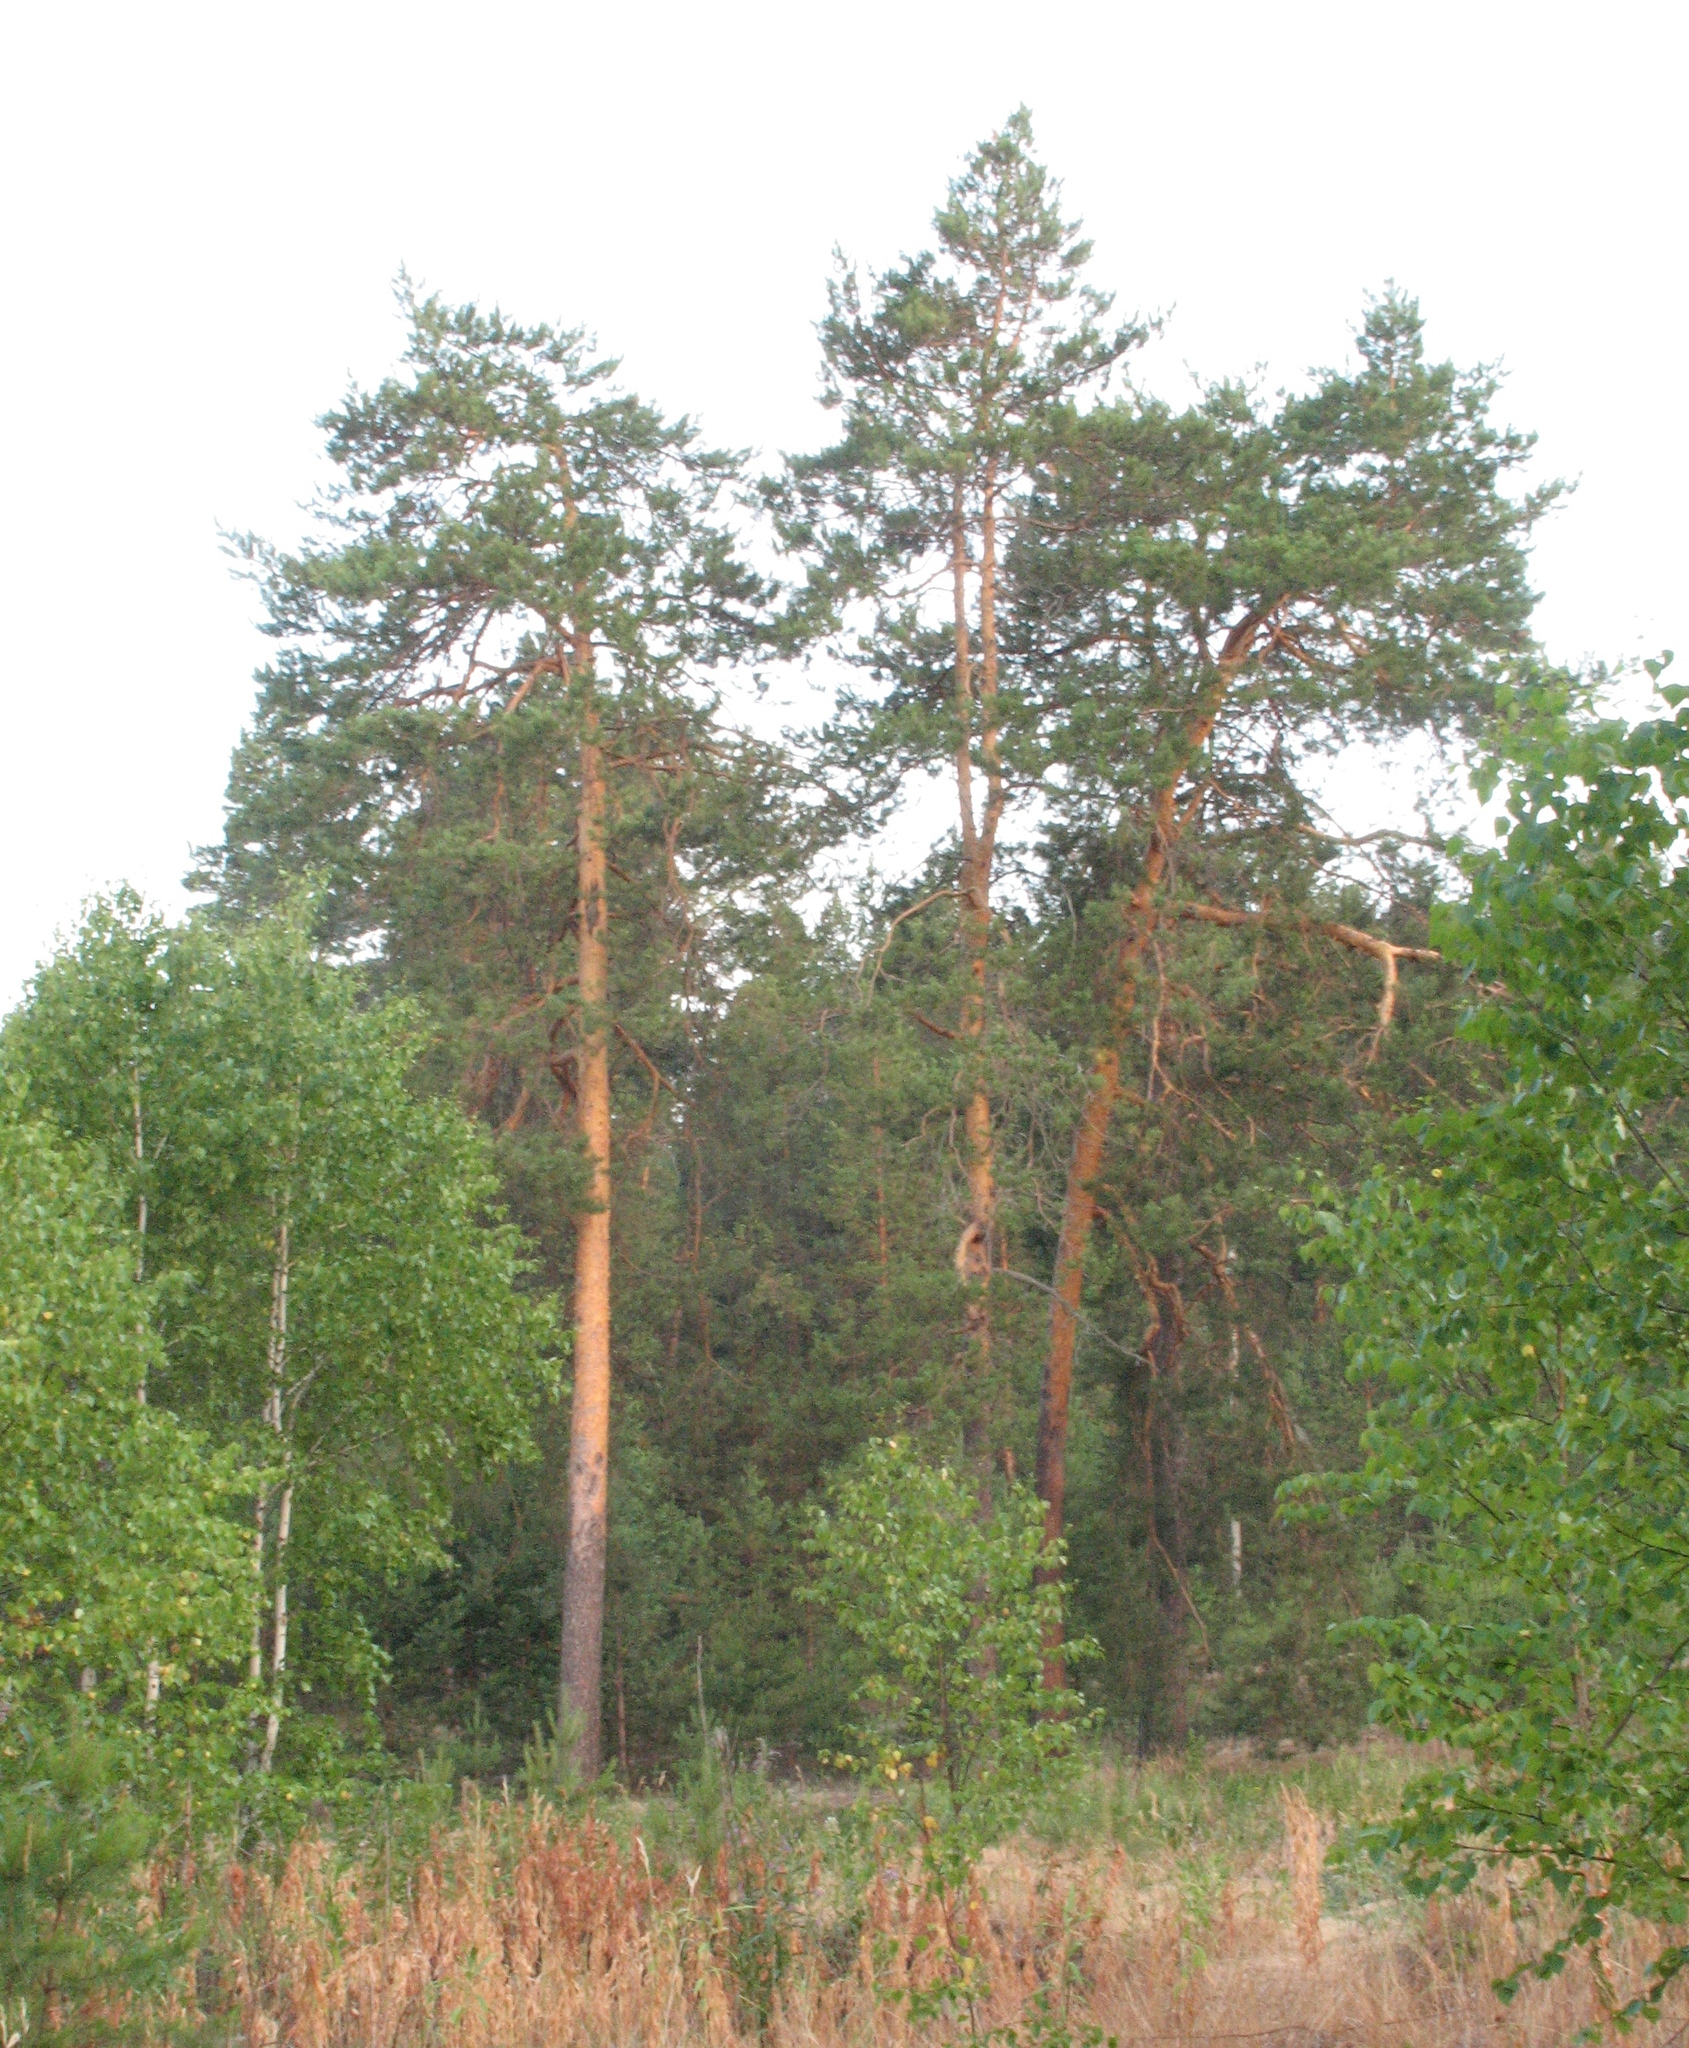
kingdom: Plantae
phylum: Tracheophyta
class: Pinopsida
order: Pinales
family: Pinaceae
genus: Pinus
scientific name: Pinus sylvestris
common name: Scots pine
